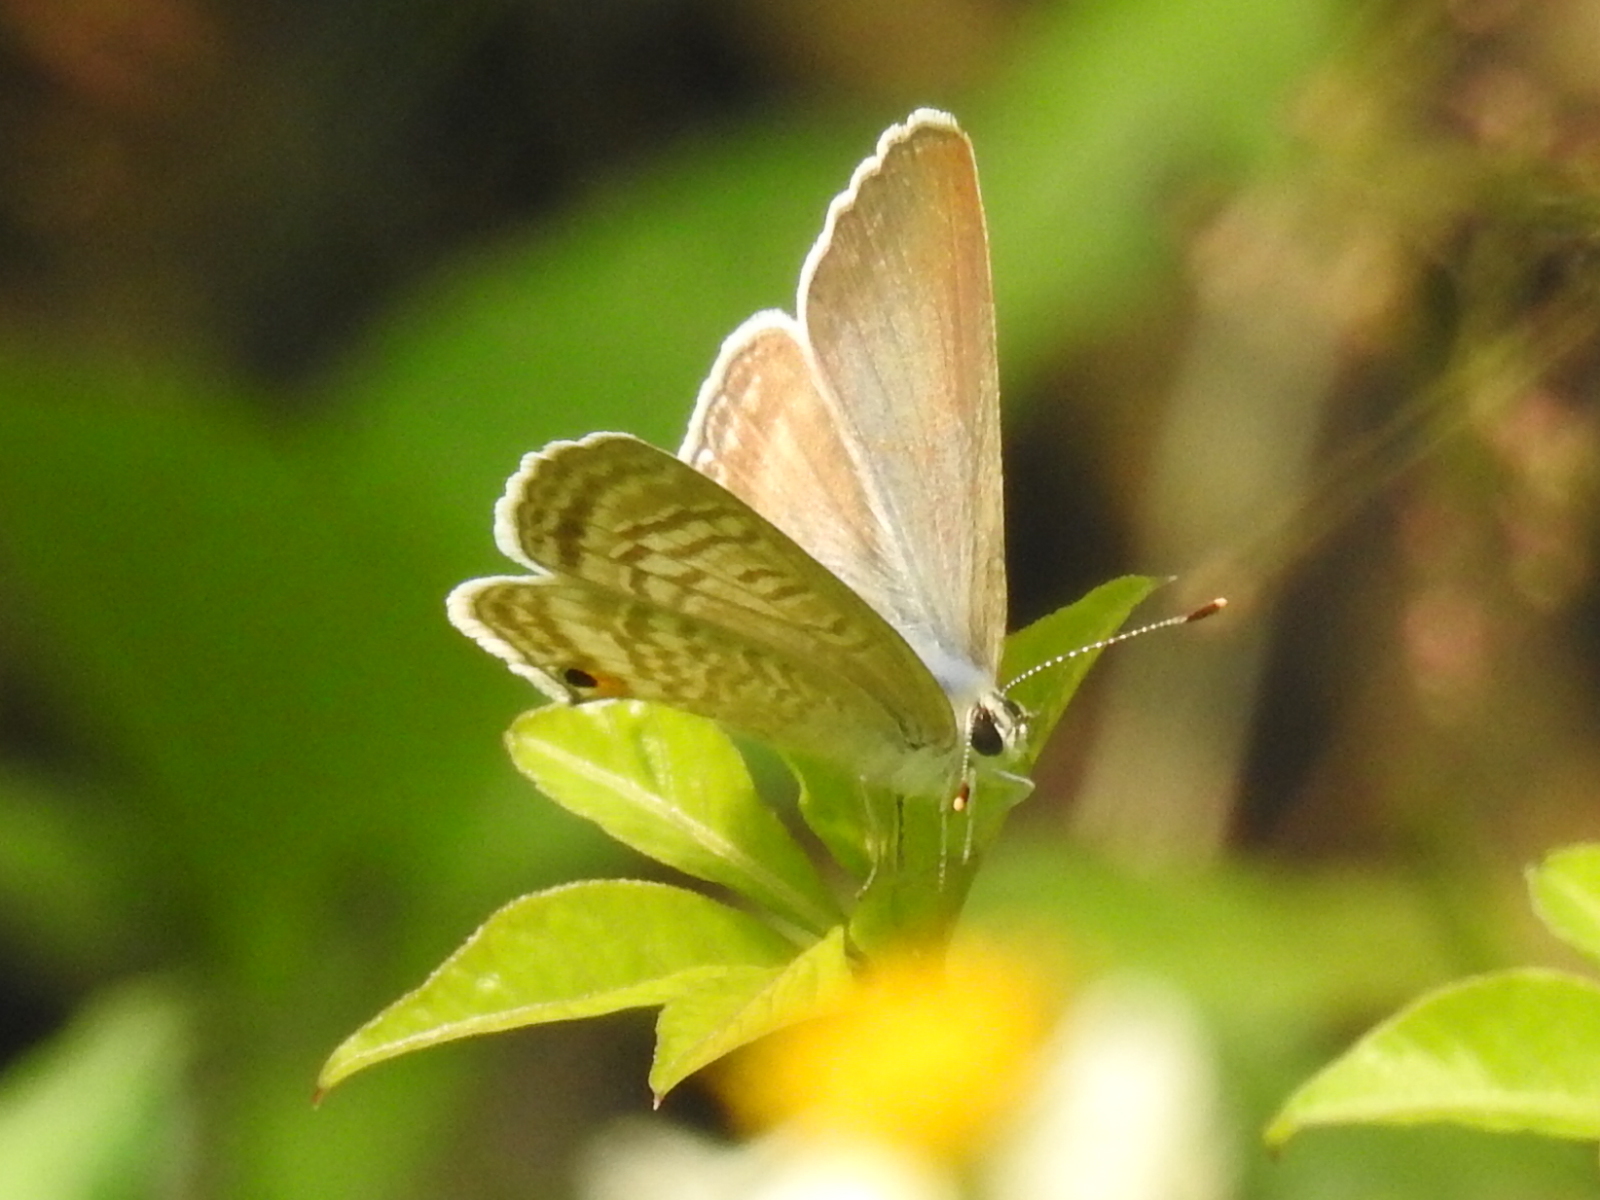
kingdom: Animalia
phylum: Arthropoda
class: Insecta
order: Lepidoptera
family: Lycaenidae
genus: Lampides
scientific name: Lampides boeticus
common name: Long-tailed blue
